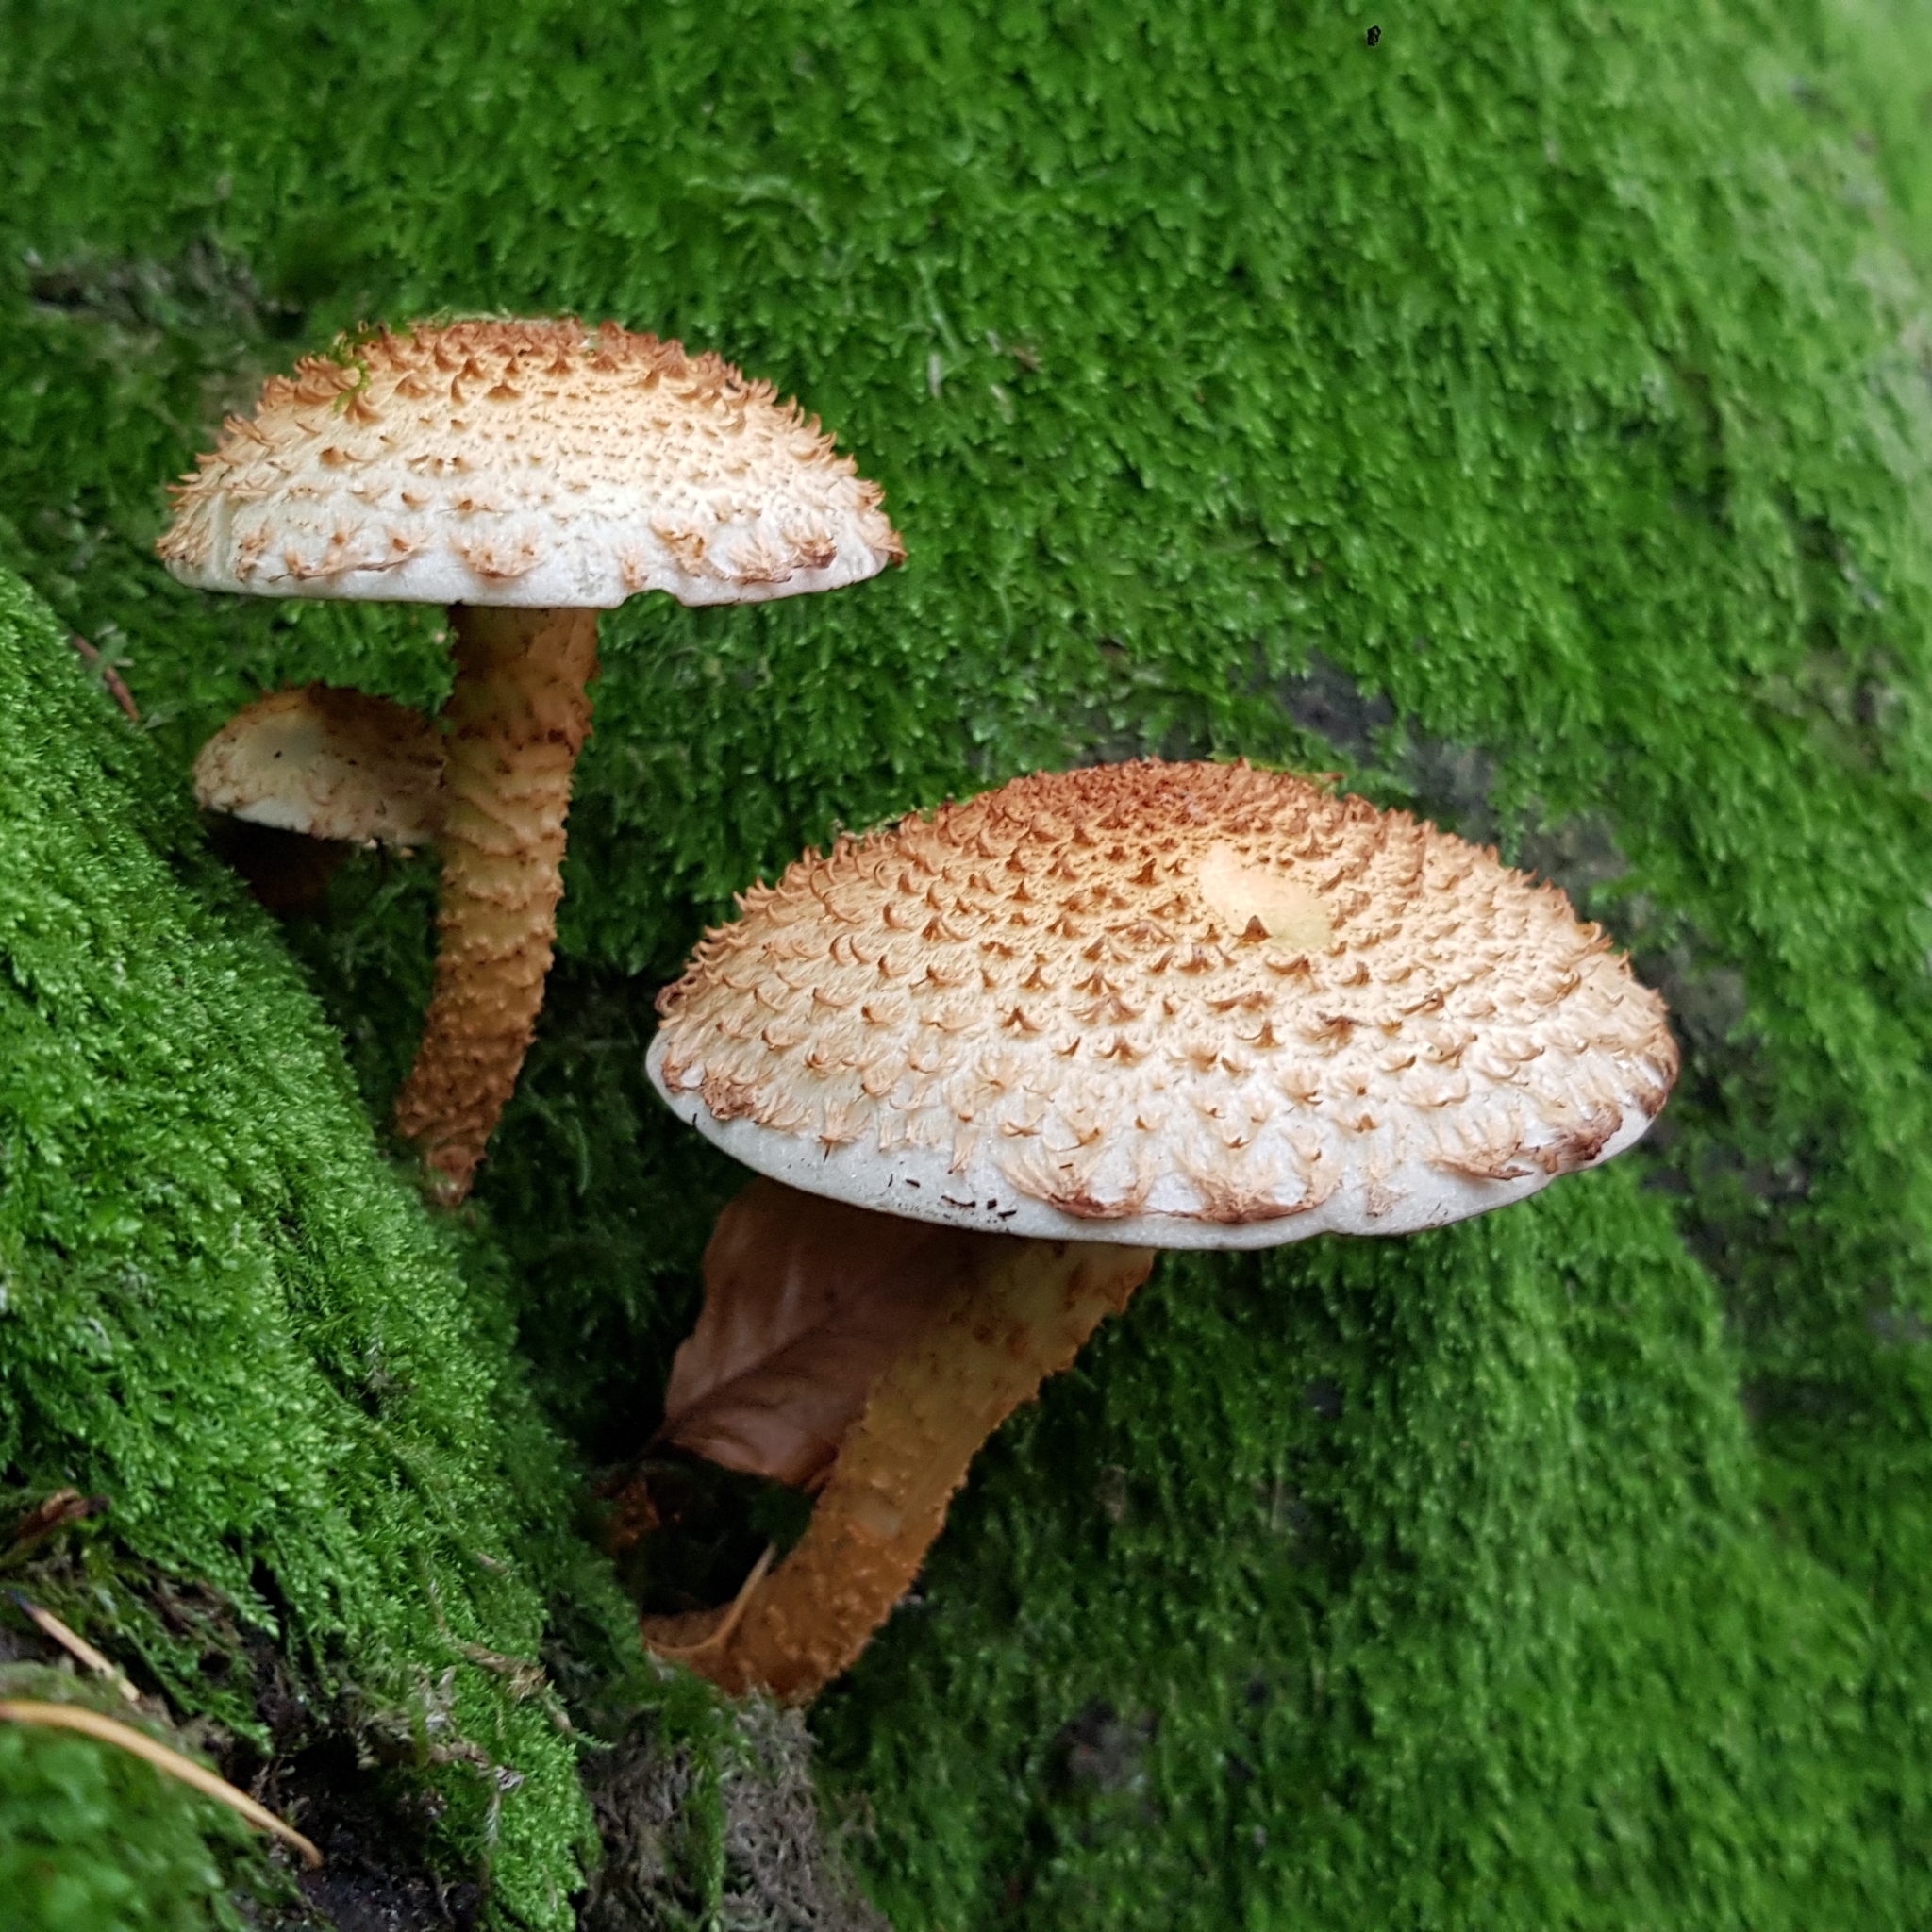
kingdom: Fungi
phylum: Basidiomycota
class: Agaricomycetes
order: Agaricales
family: Strophariaceae
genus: Pholiota
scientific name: Pholiota squarrosa
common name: Shaggy pholiota
